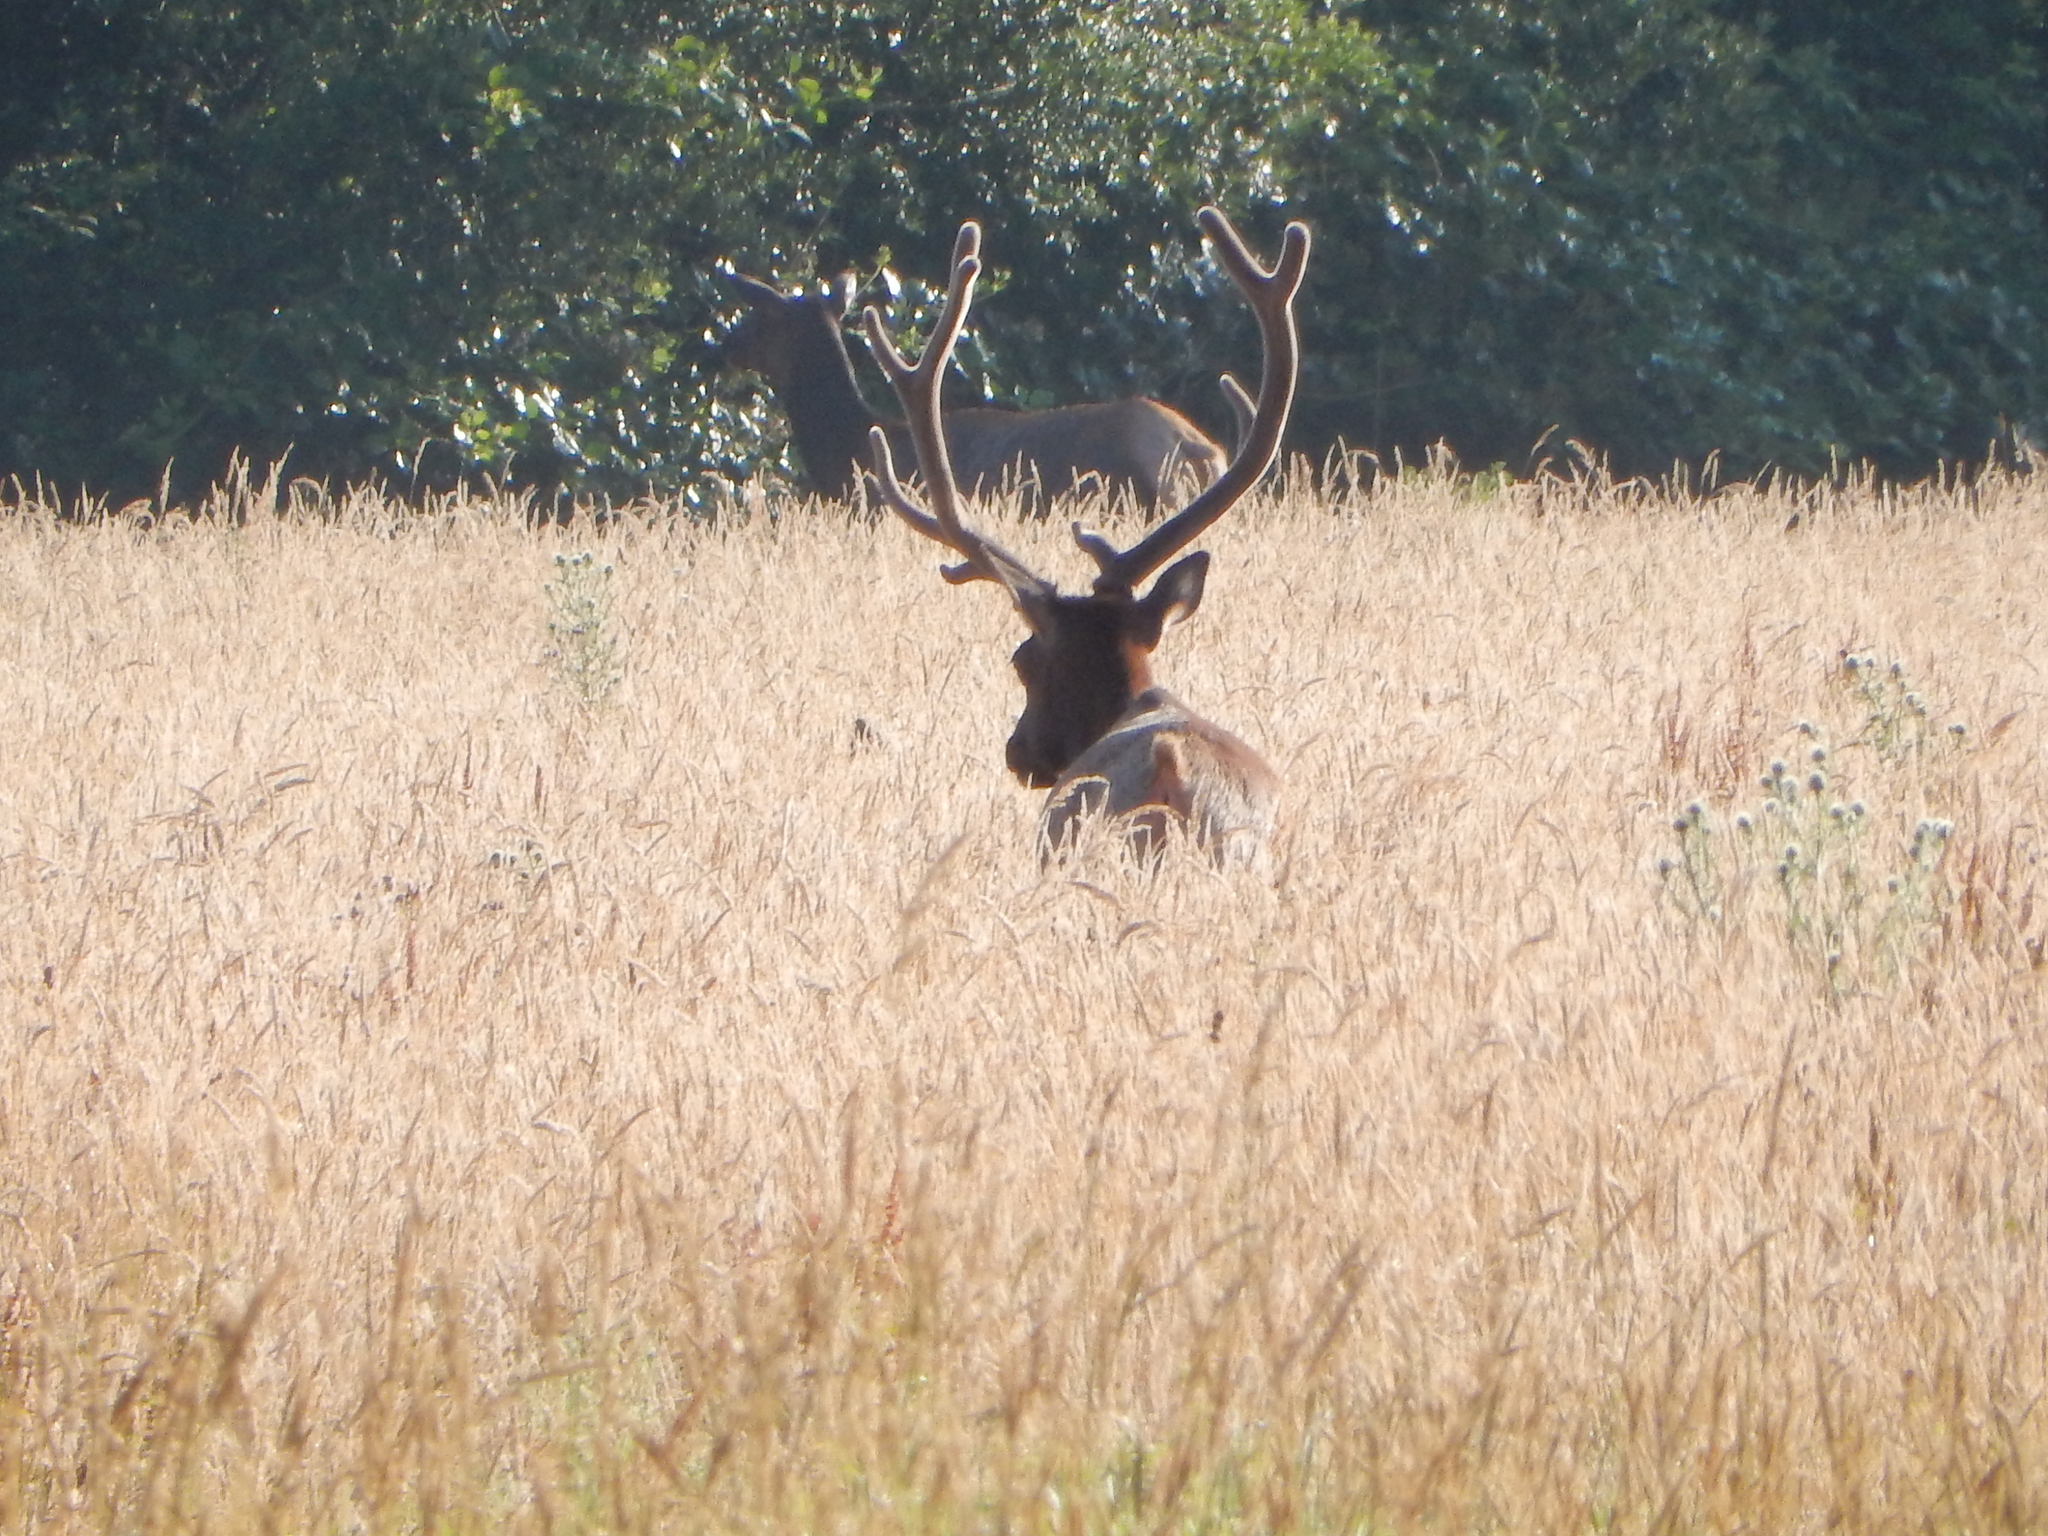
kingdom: Animalia
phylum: Chordata
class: Mammalia
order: Artiodactyla
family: Cervidae
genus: Cervus
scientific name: Cervus elaphus
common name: Red deer
